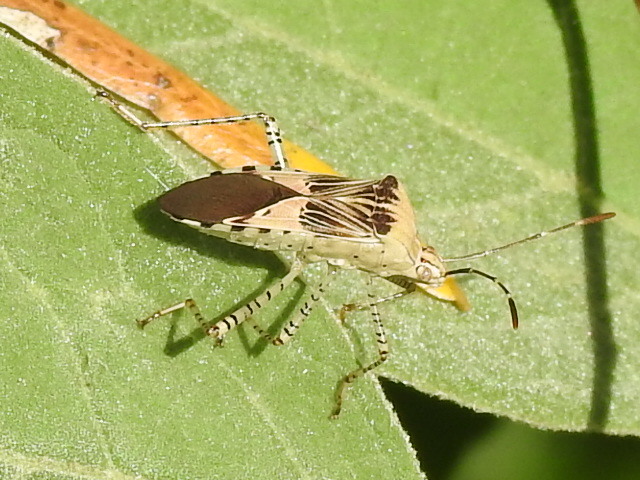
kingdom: Animalia
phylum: Arthropoda
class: Insecta
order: Hemiptera
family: Coreidae
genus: Hypselonotus
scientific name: Hypselonotus punctiventris
